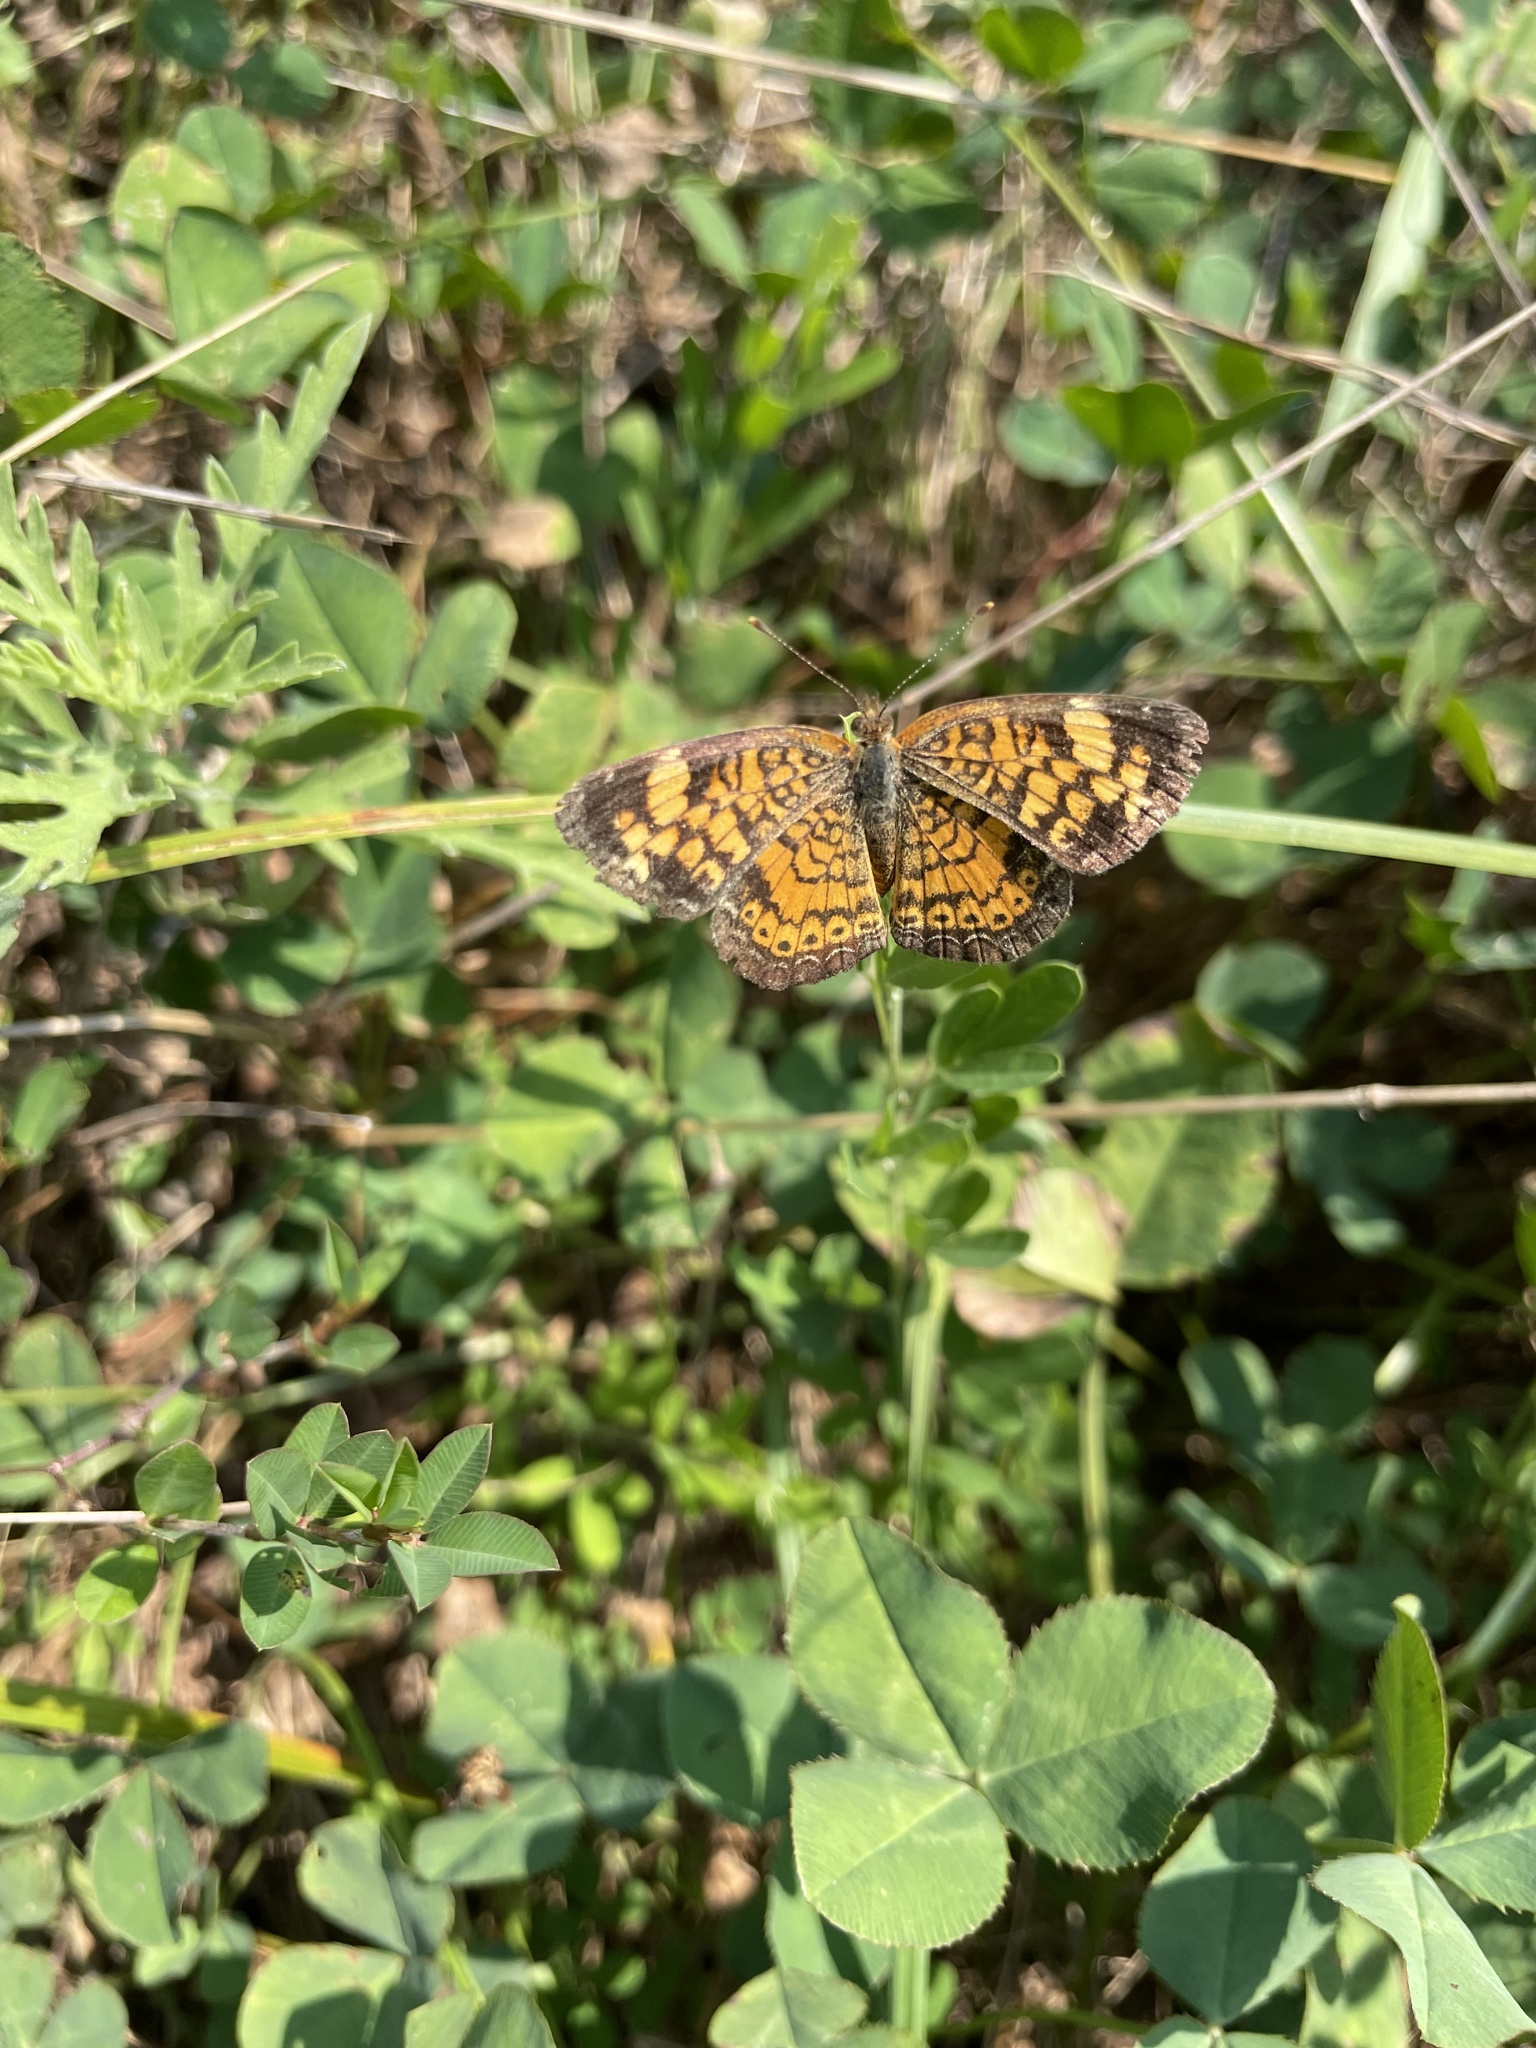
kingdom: Animalia
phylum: Arthropoda
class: Insecta
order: Lepidoptera
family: Nymphalidae
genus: Phyciodes
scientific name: Phyciodes tharos
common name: Pearl crescent
